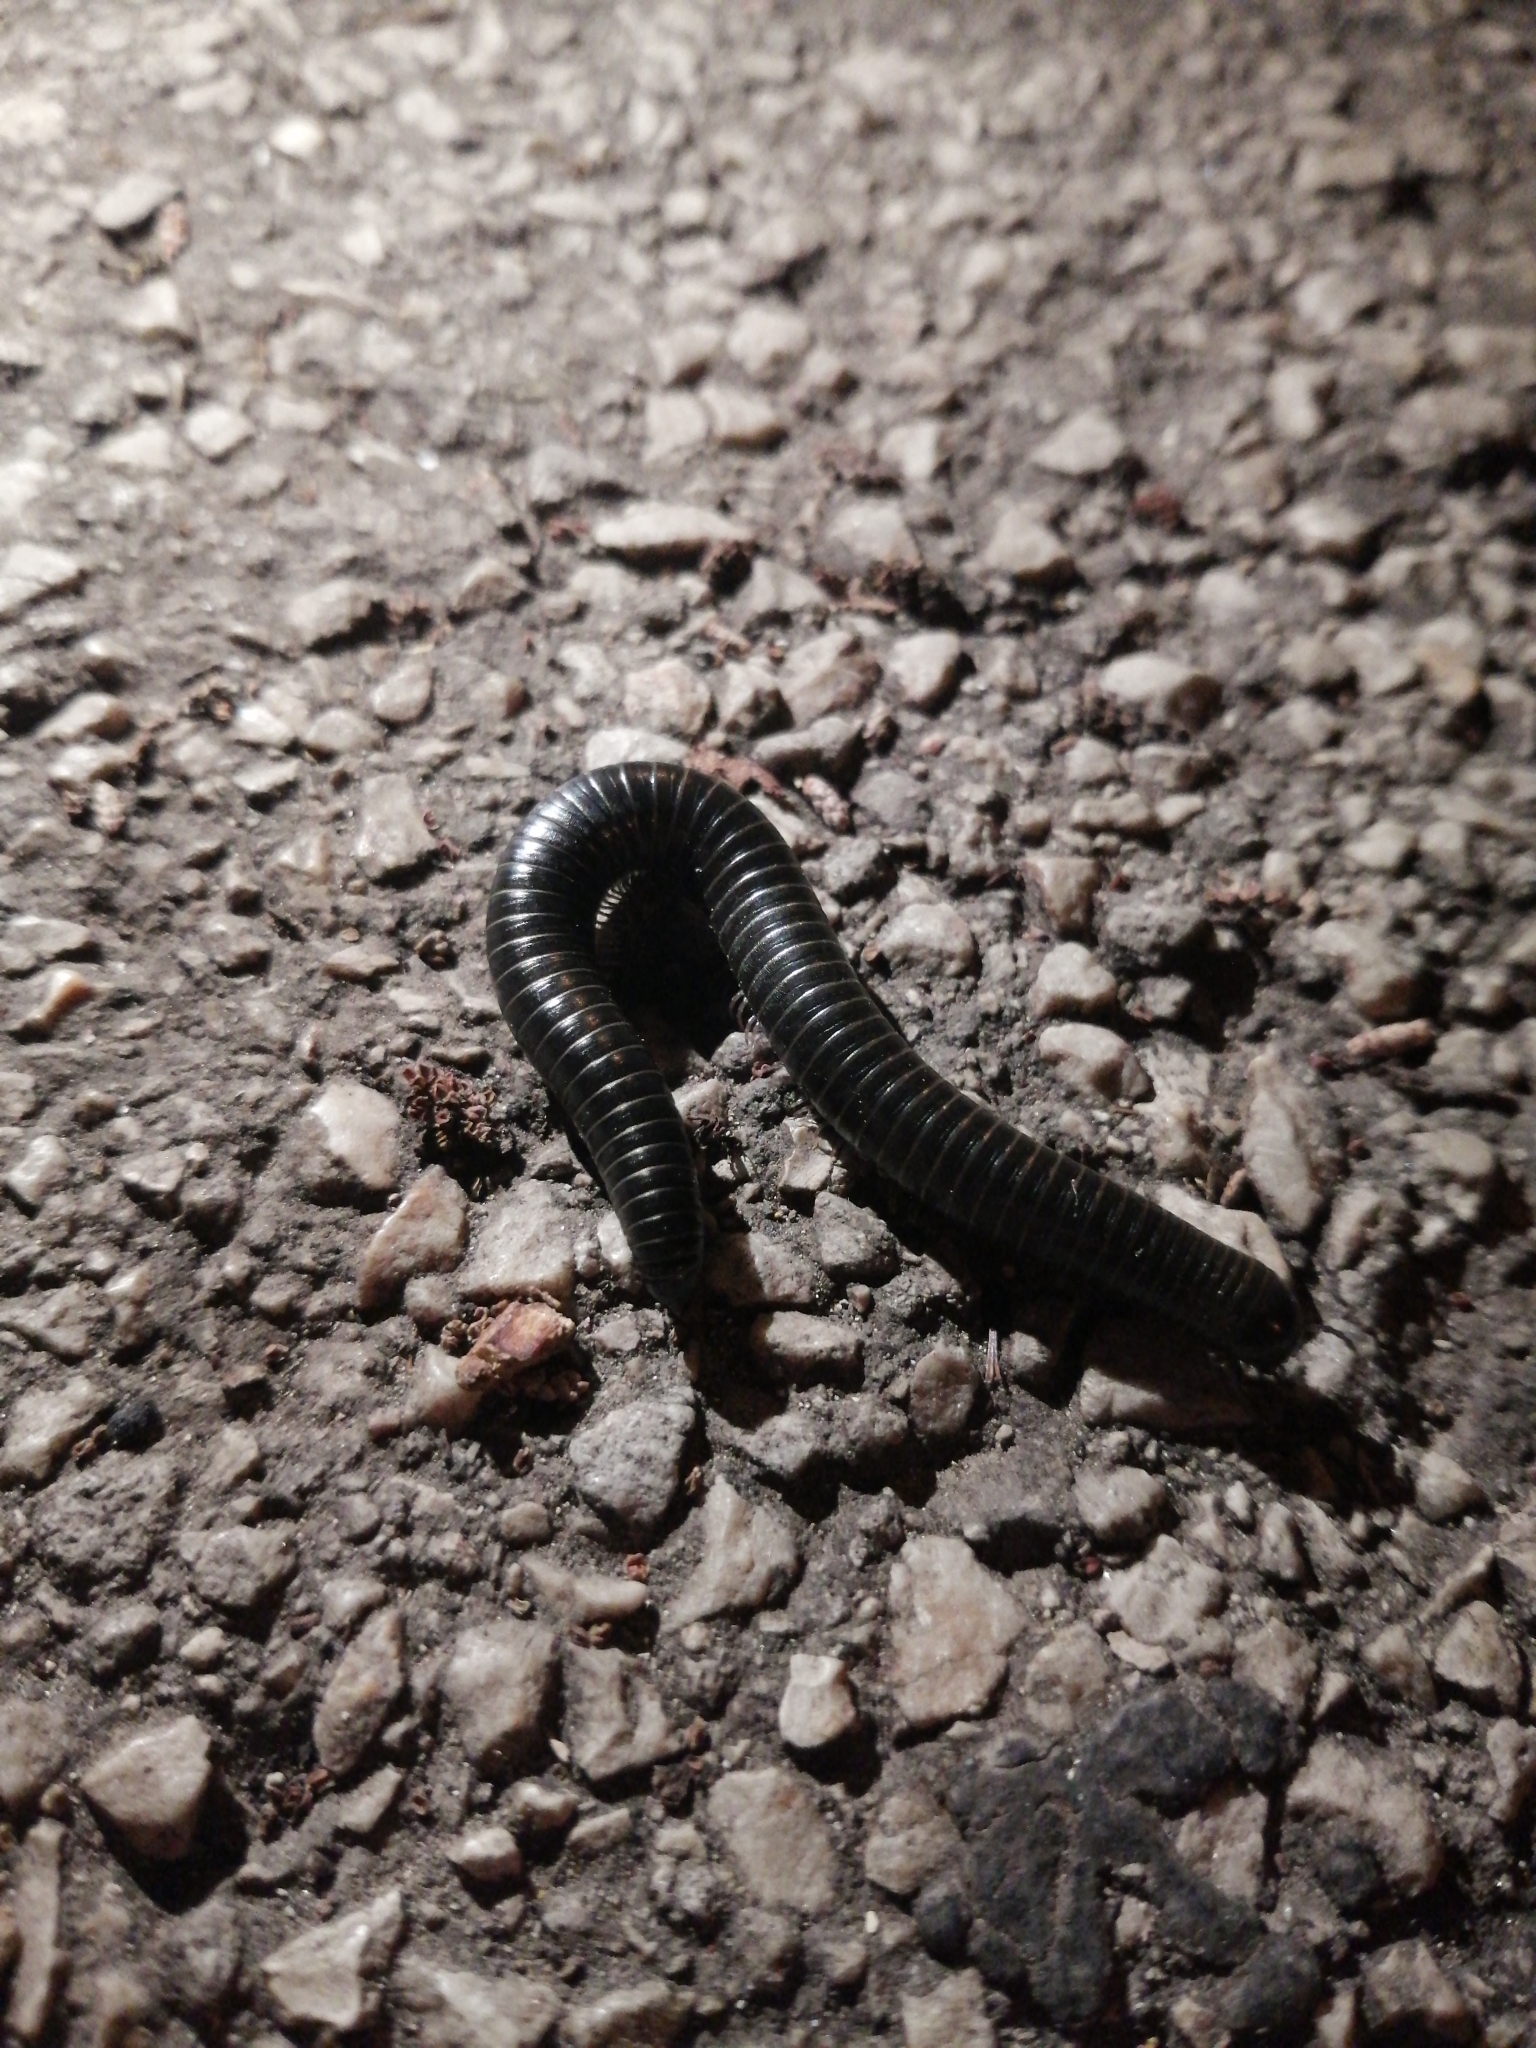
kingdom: Animalia
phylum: Arthropoda
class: Diplopoda
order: Spirostreptida
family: Spirostreptidae
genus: Archispirostreptus
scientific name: Archispirostreptus syriacus
